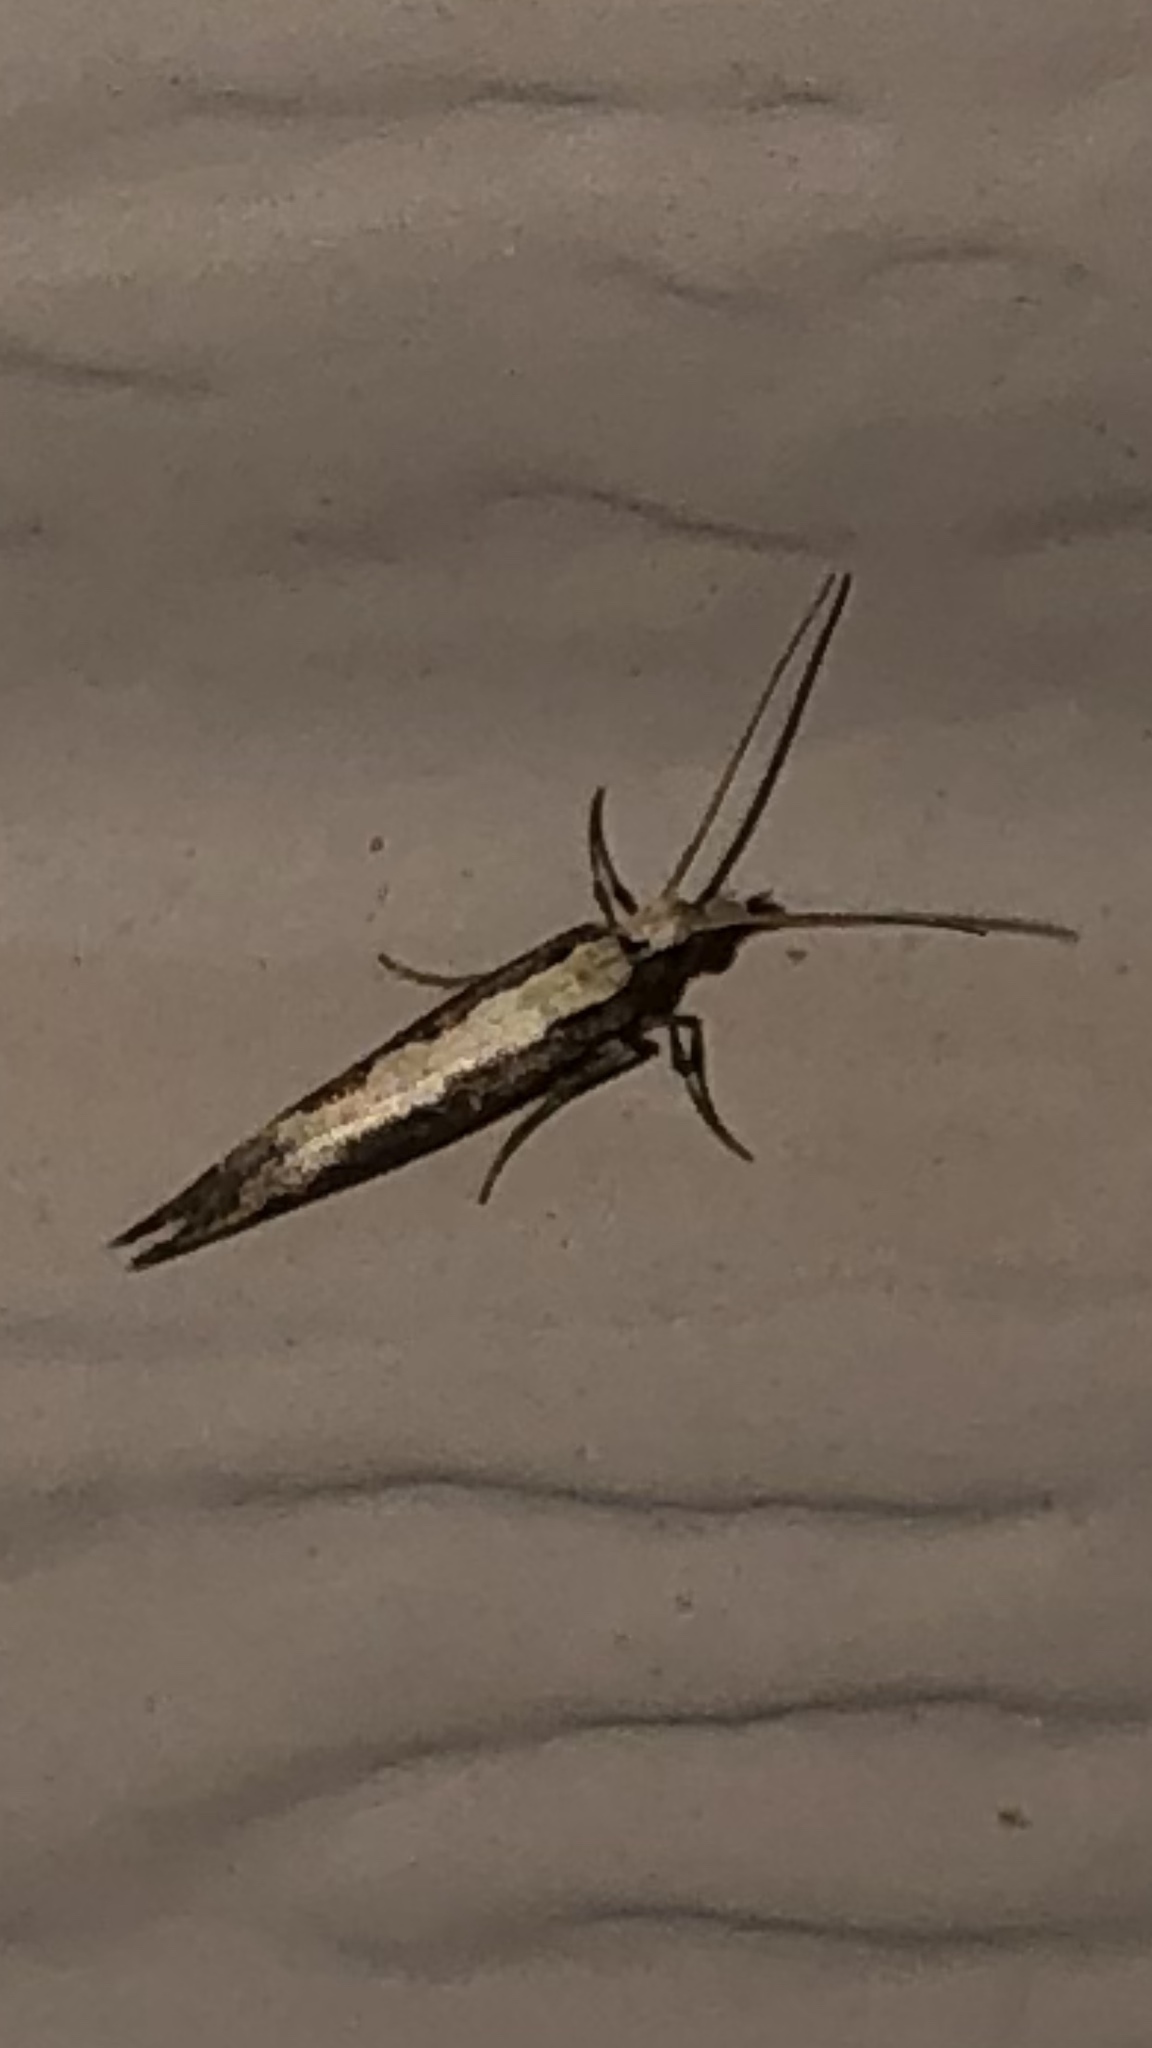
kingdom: Animalia
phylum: Arthropoda
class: Insecta
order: Lepidoptera
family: Plutellidae
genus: Plutella
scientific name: Plutella xylostella
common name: Diamond-back moth
